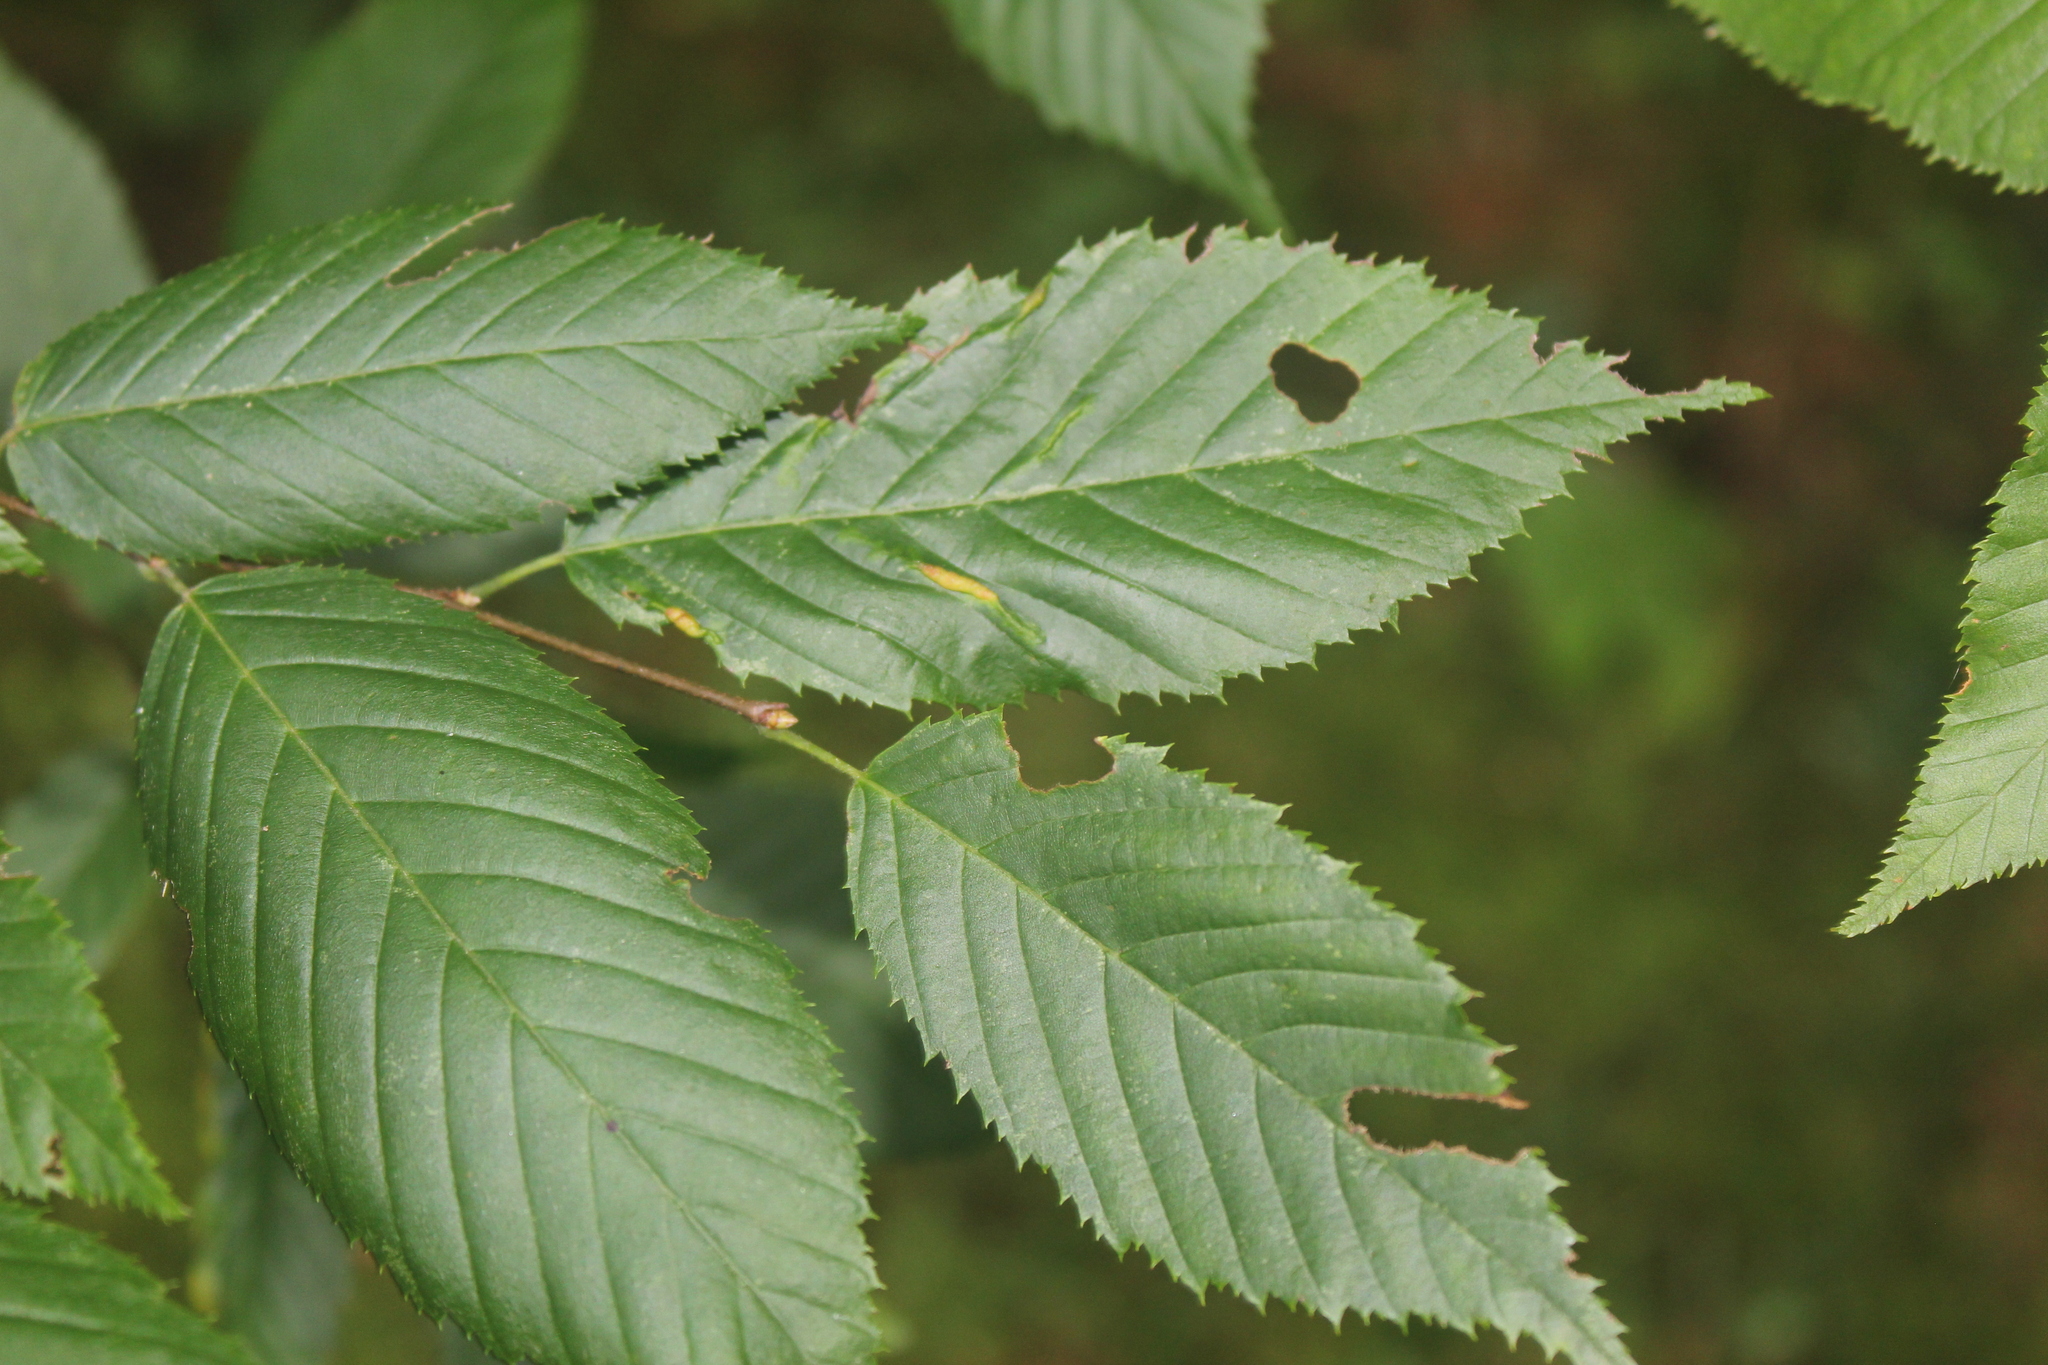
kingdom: Animalia
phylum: Arthropoda
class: Insecta
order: Diptera
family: Cecidomyiidae
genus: Dasineura
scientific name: Dasineura pudibunda
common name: Hornbeam leaf gall midge
